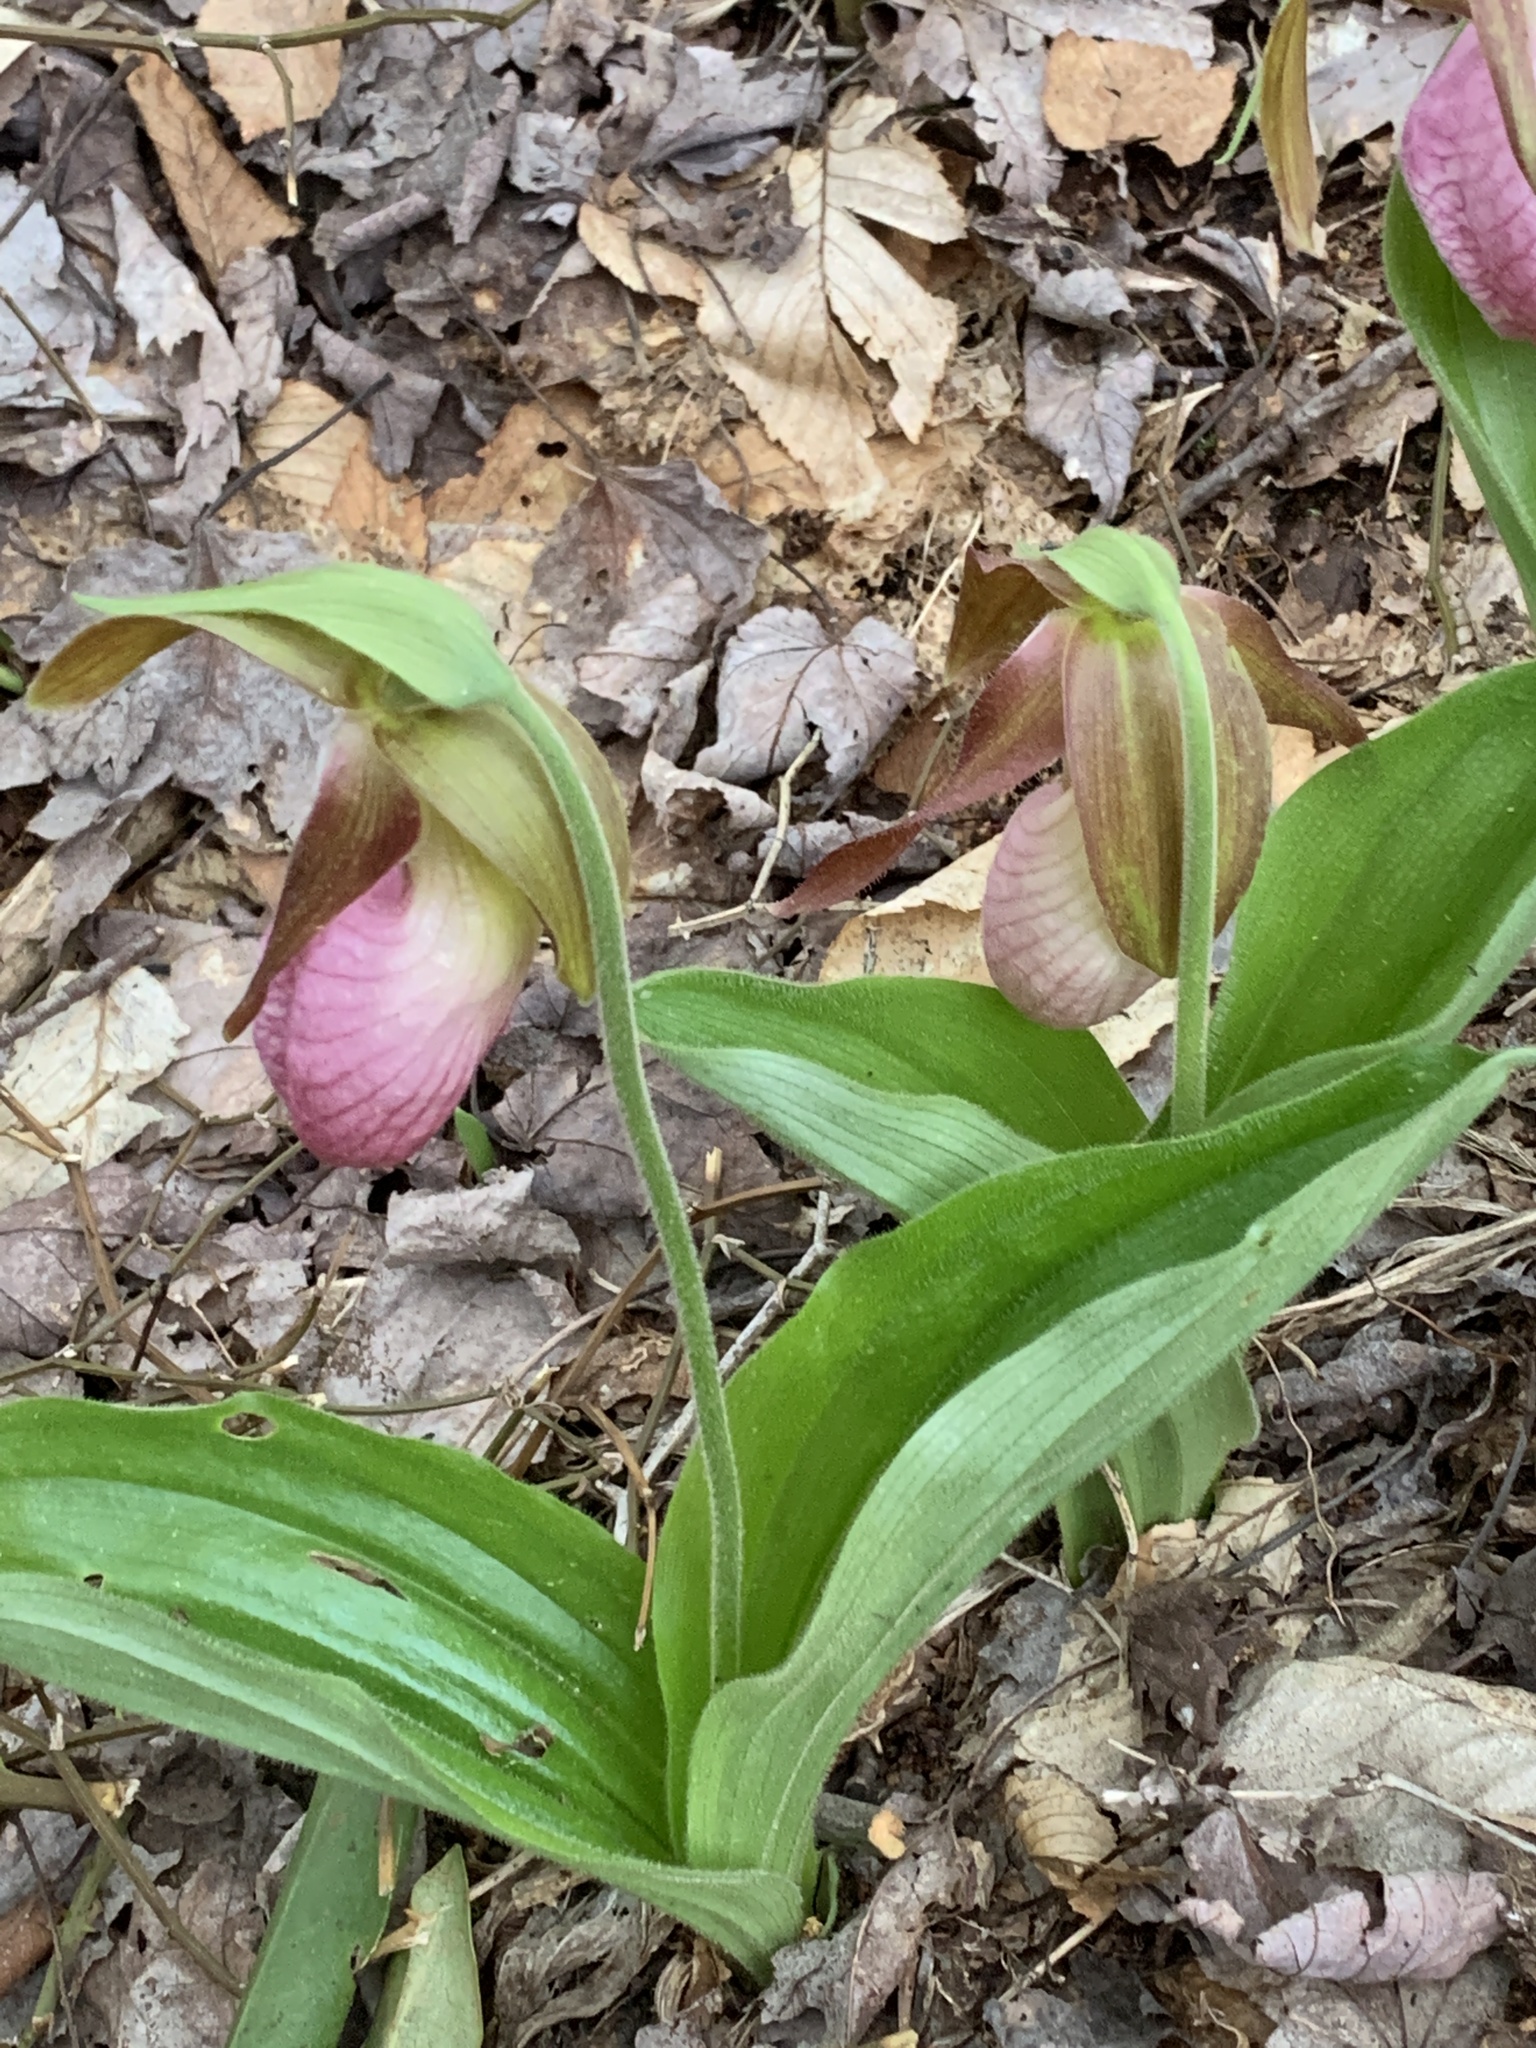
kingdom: Plantae
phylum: Tracheophyta
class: Liliopsida
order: Asparagales
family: Orchidaceae
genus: Cypripedium
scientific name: Cypripedium acaule
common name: Pink lady's-slipper
